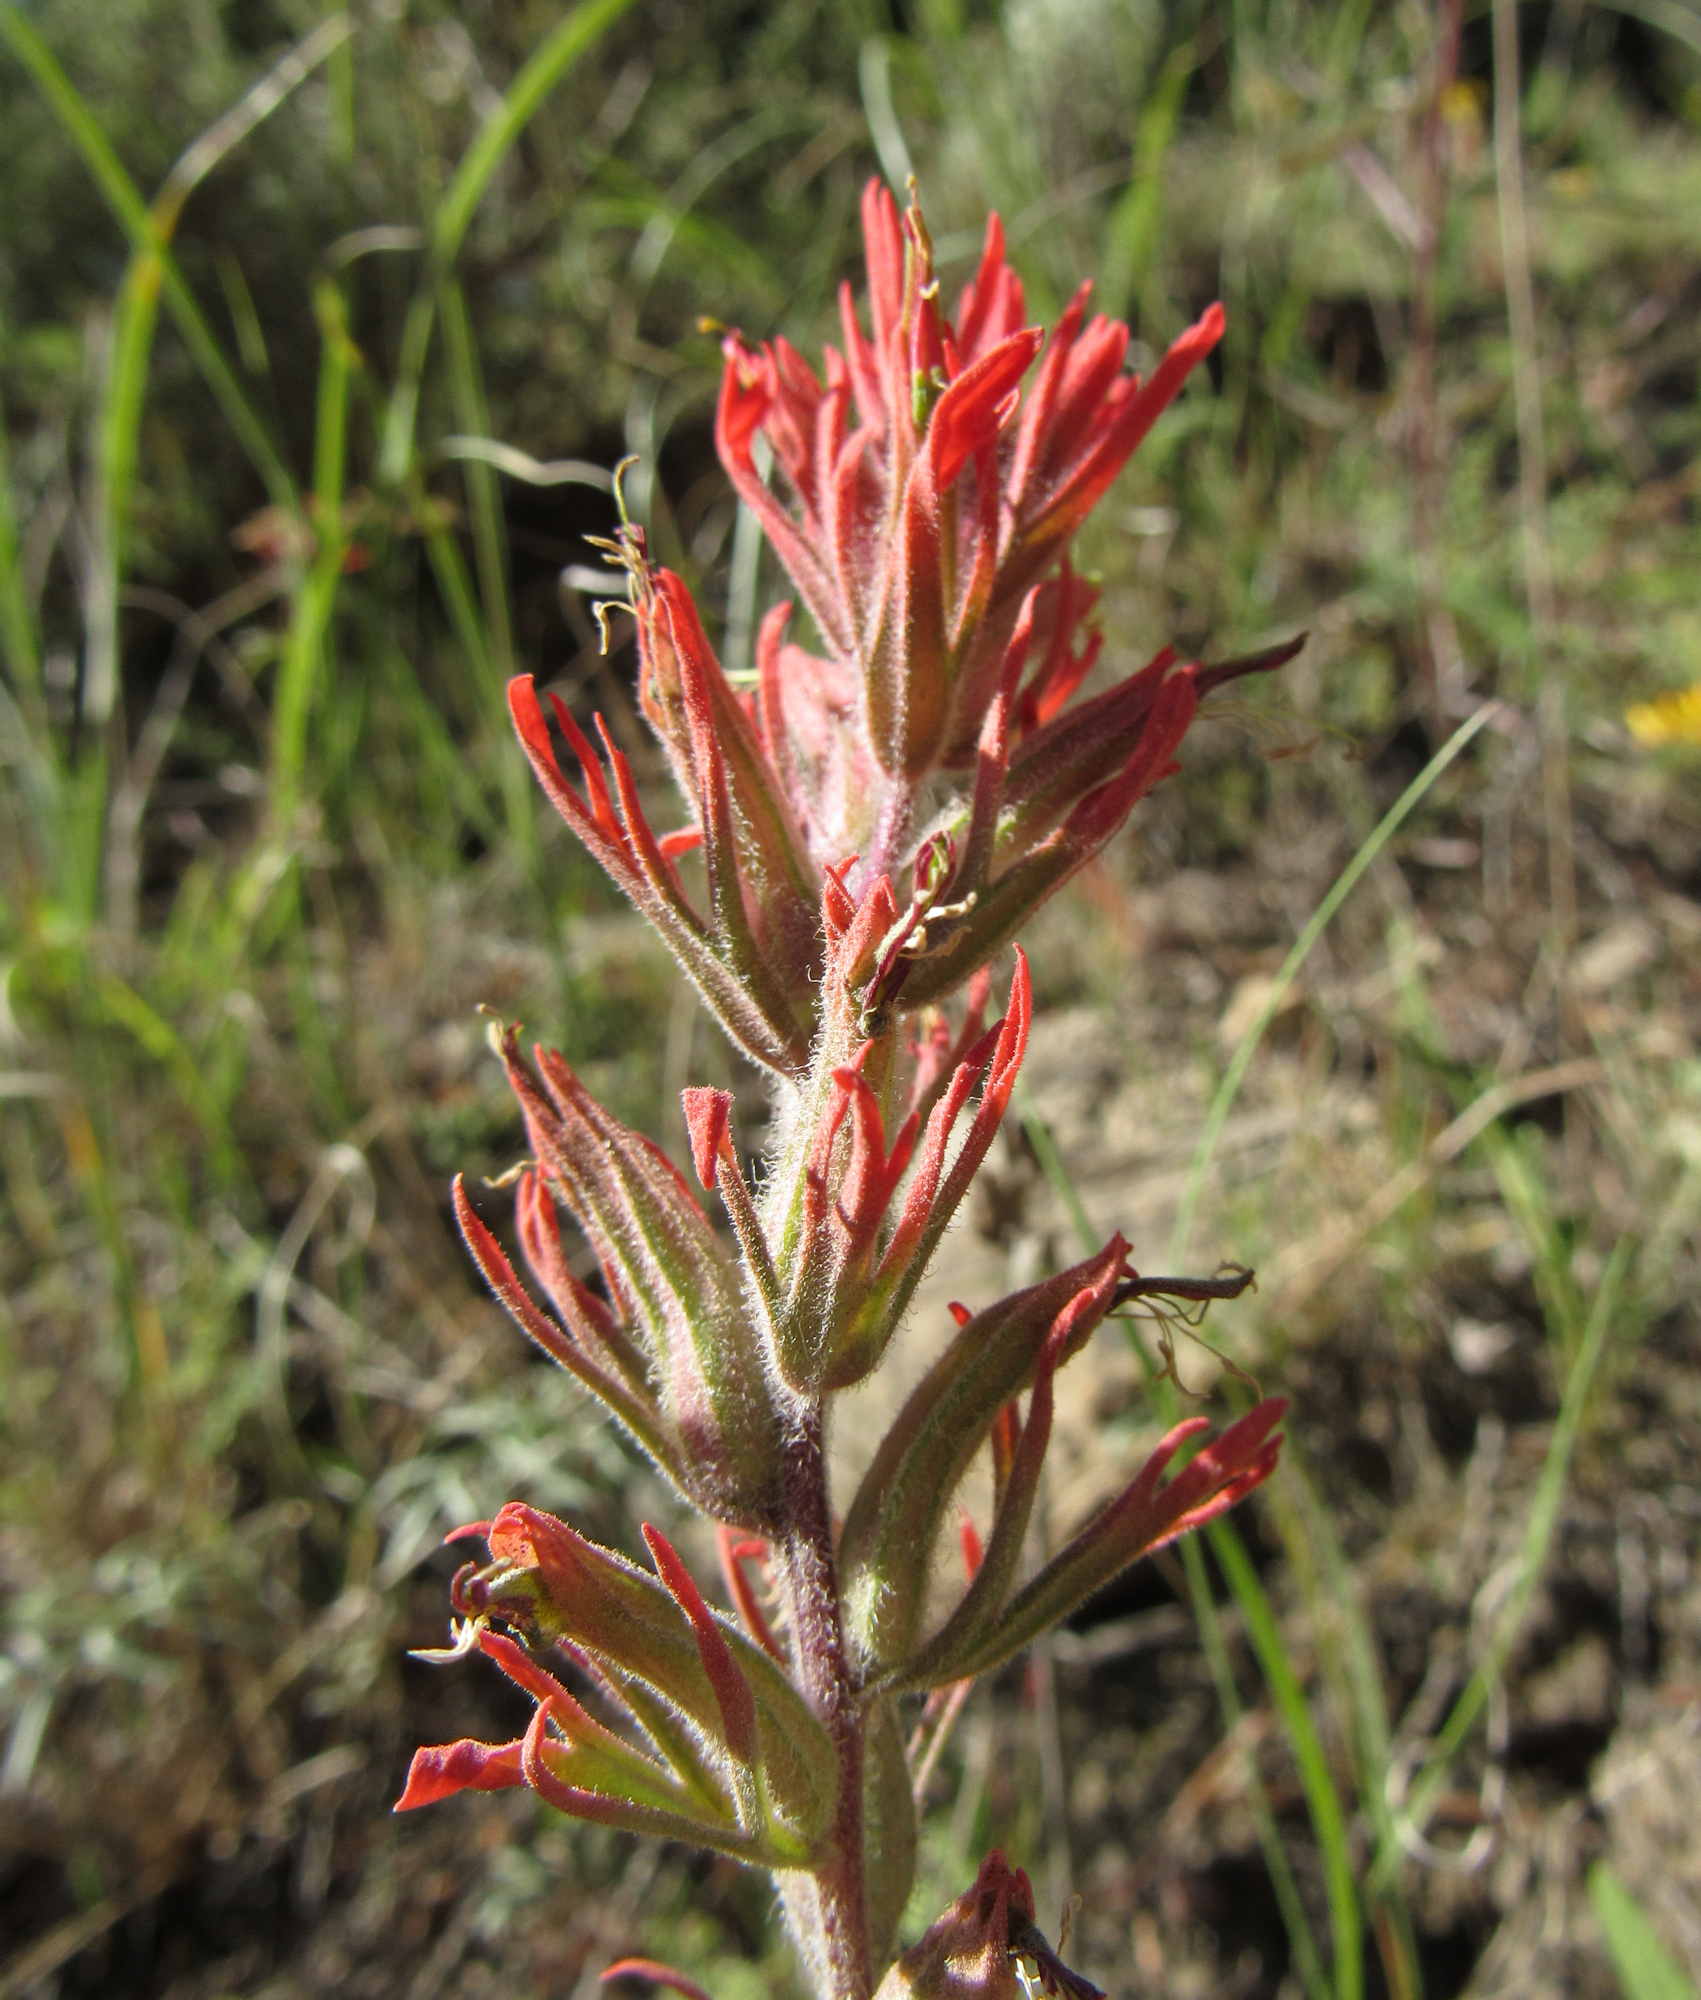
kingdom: Plantae
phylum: Tracheophyta
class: Magnoliopsida
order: Lamiales
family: Orobanchaceae
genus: Castilleja
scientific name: Castilleja covilleana
